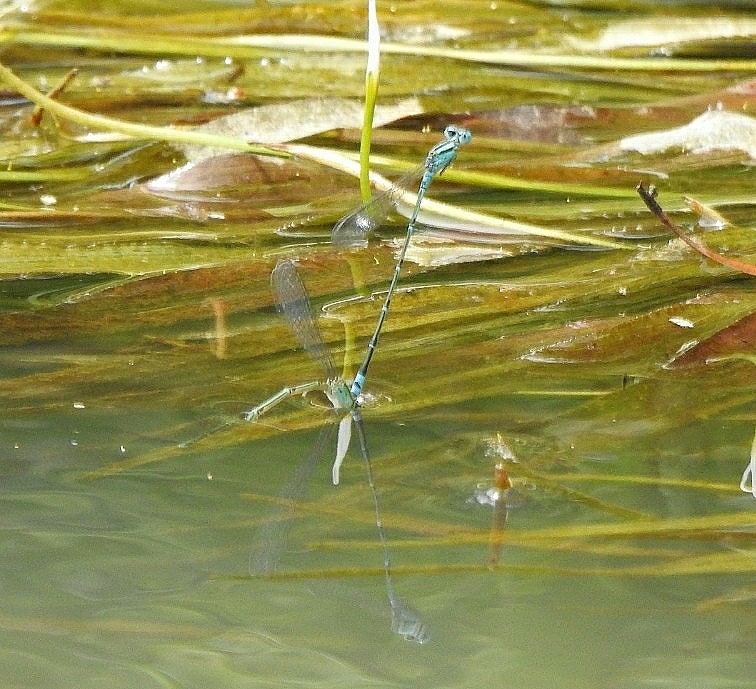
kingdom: Animalia
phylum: Arthropoda
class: Insecta
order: Odonata
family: Coenagrionidae
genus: Pseudagrion
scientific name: Pseudagrion microcephalum
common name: Blue riverdamsel
